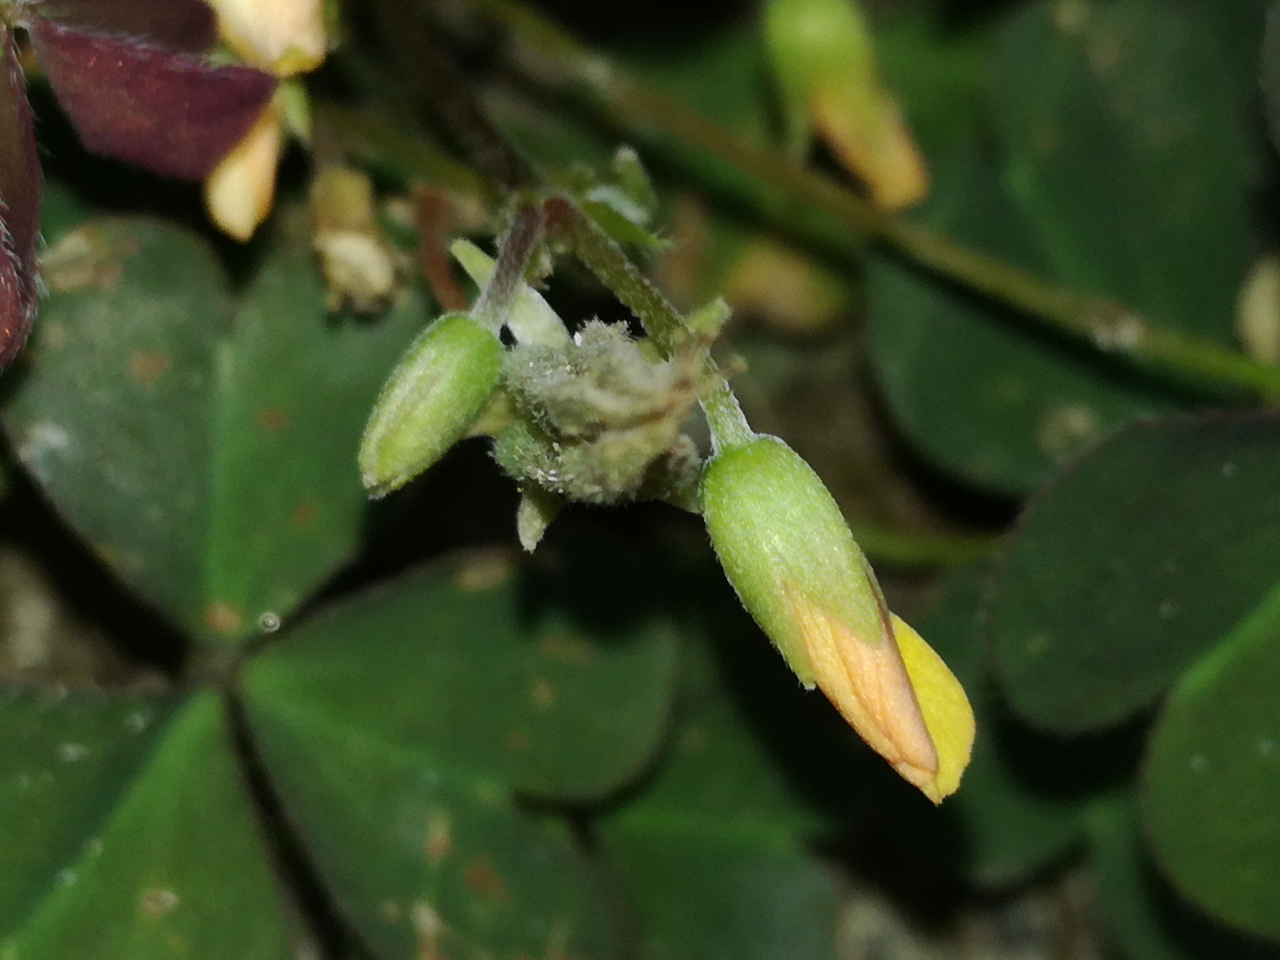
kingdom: Plantae
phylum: Tracheophyta
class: Magnoliopsida
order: Oxalidales
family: Oxalidaceae
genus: Oxalis
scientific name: Oxalis corniculata
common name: Procumbent yellow-sorrel
